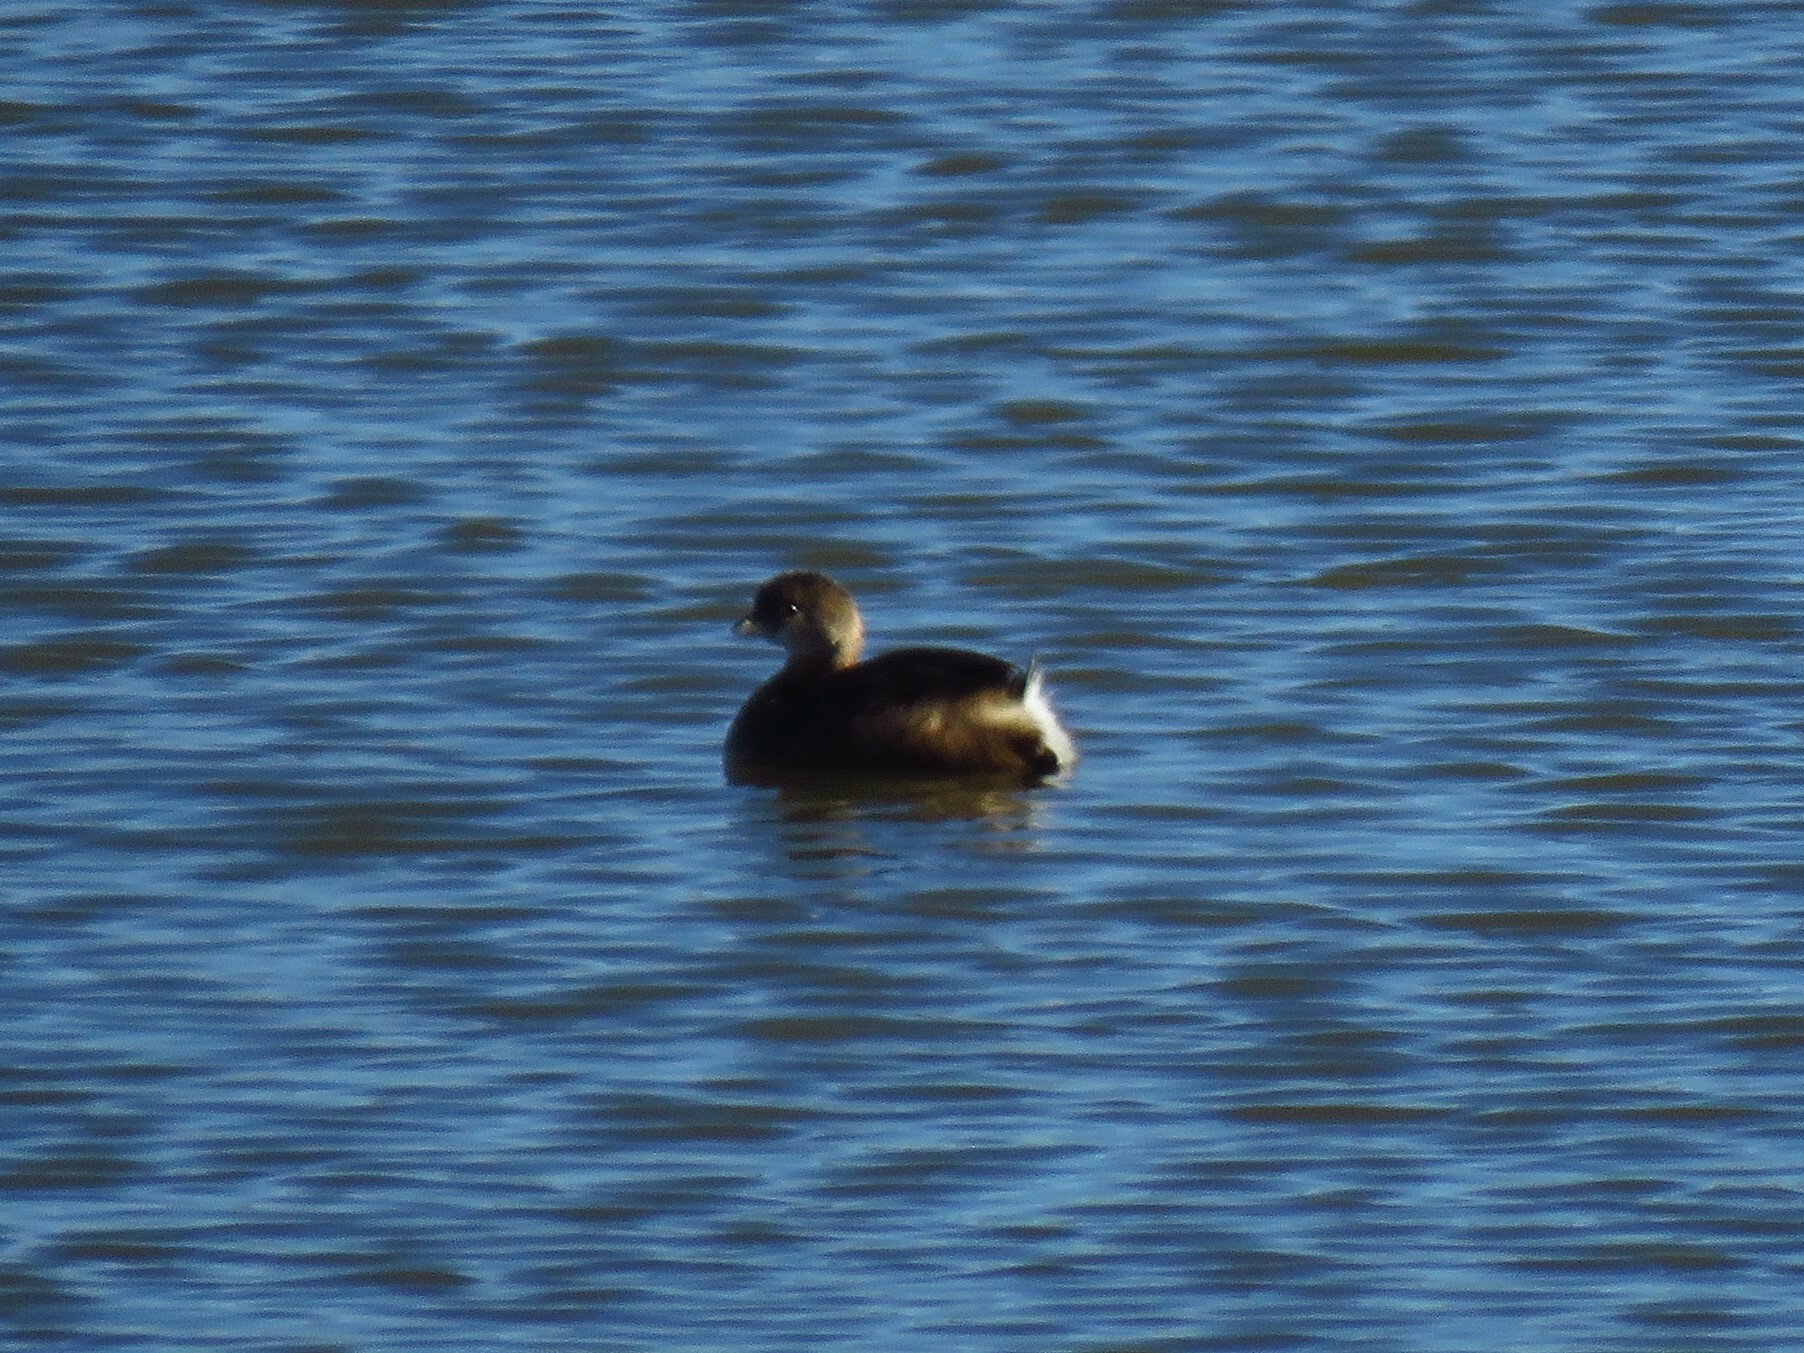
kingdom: Animalia
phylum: Chordata
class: Aves
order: Podicipediformes
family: Podicipedidae
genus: Podilymbus
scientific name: Podilymbus podiceps
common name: Pied-billed grebe
